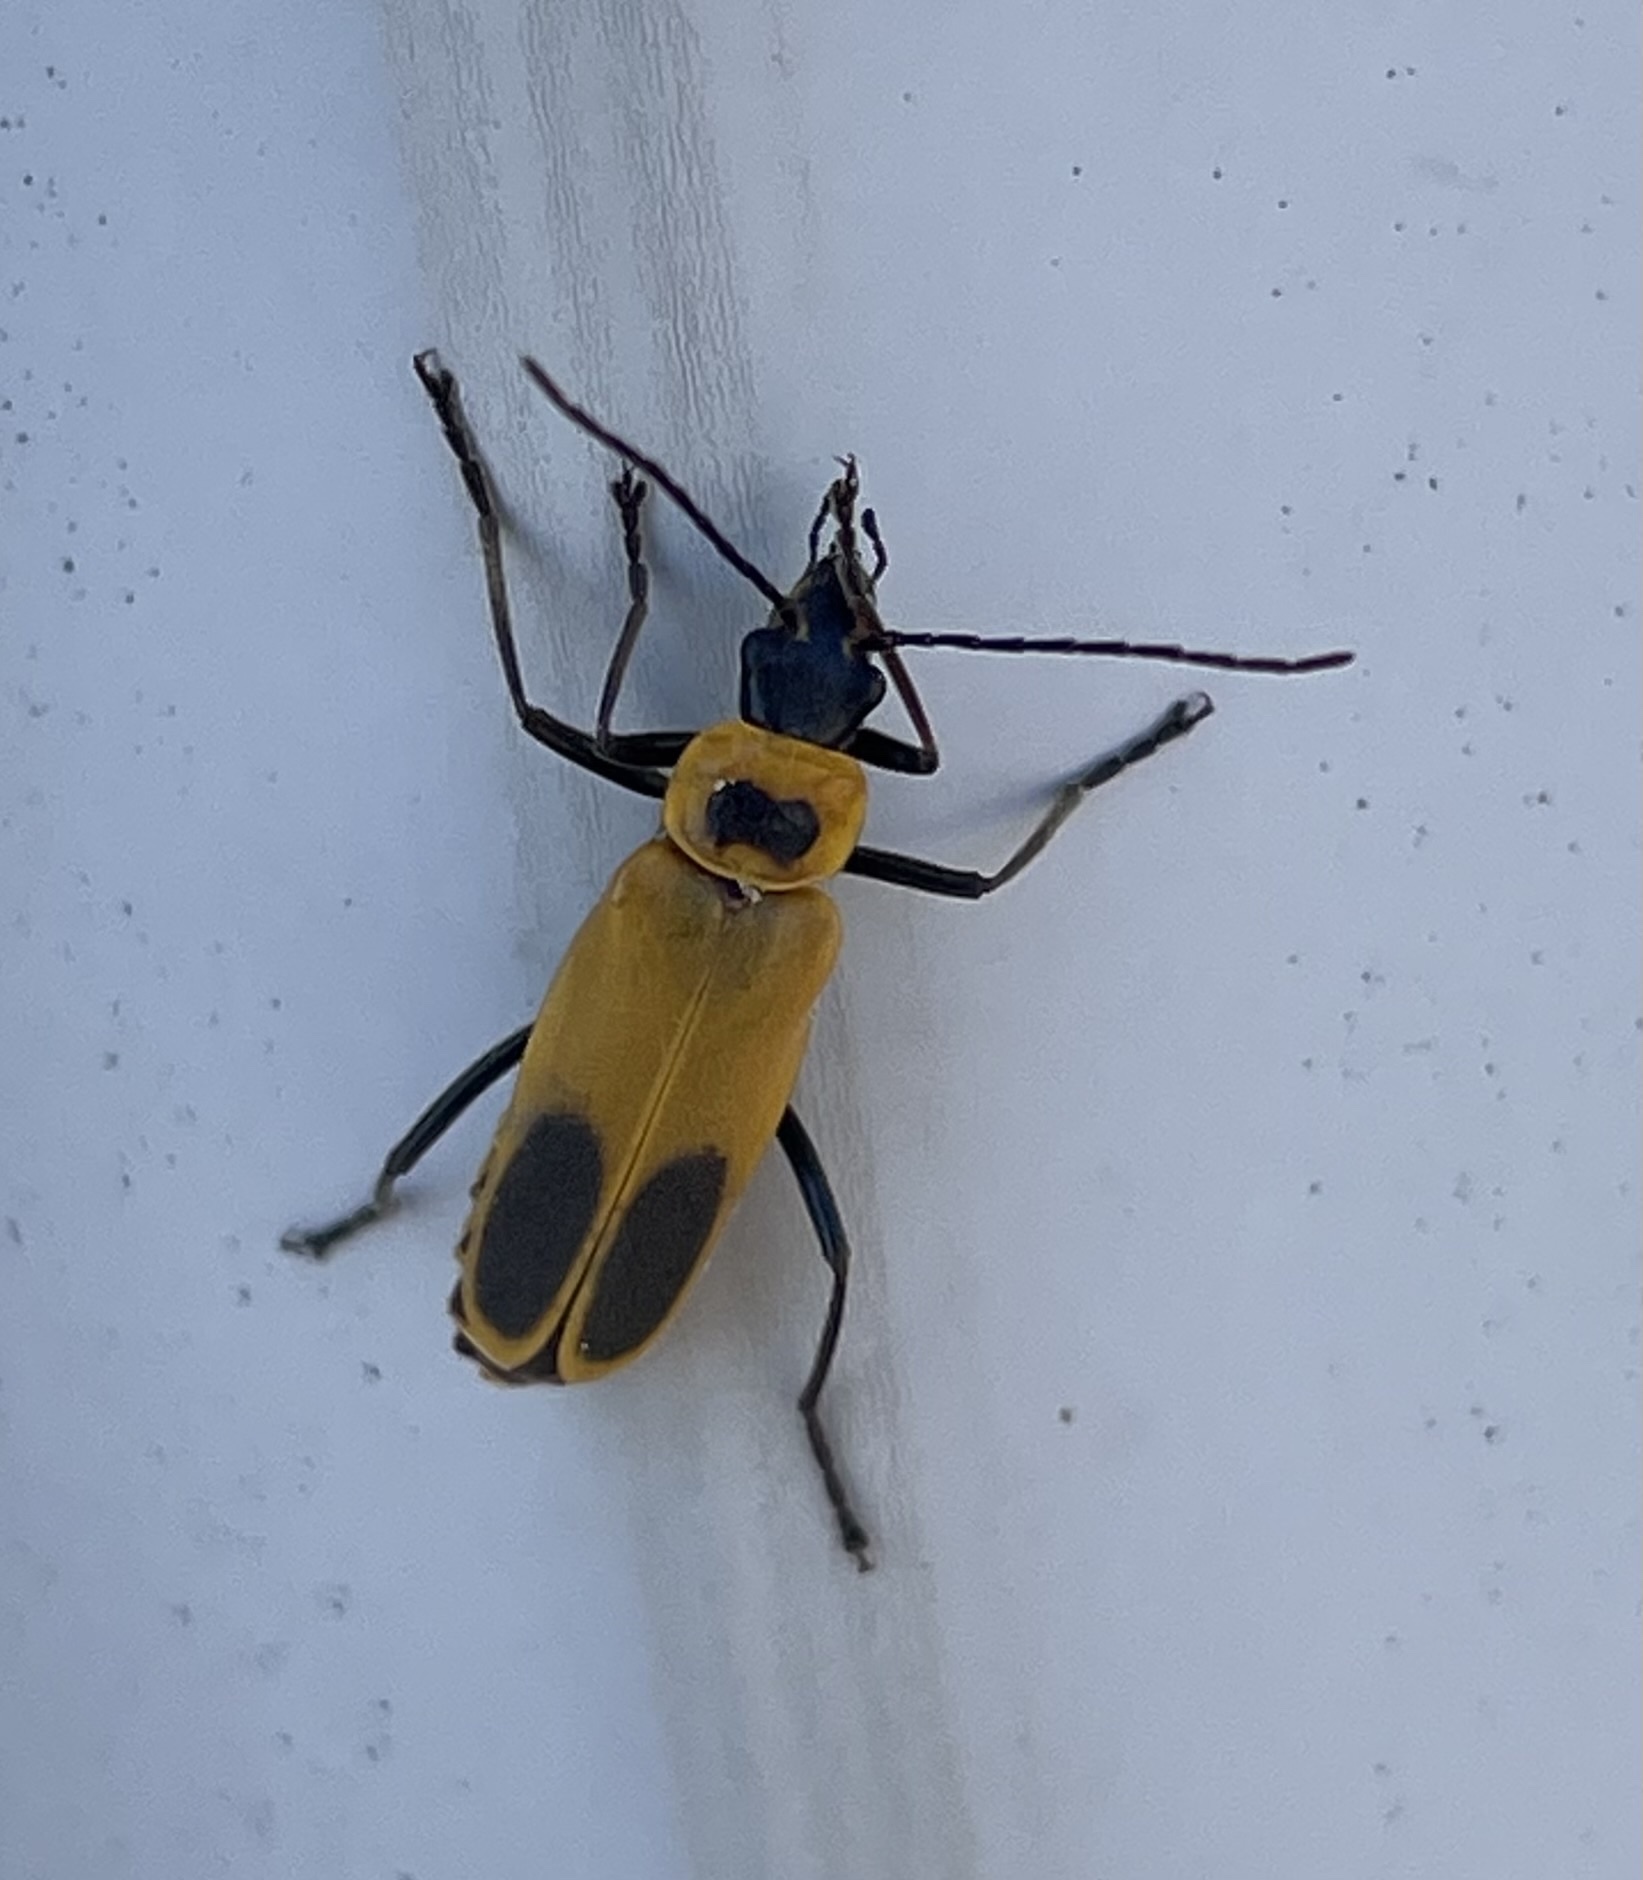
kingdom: Animalia
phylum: Arthropoda
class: Insecta
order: Coleoptera
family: Cantharidae
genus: Chauliognathus
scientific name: Chauliognathus pensylvanicus
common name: Goldenrod soldier beetle
